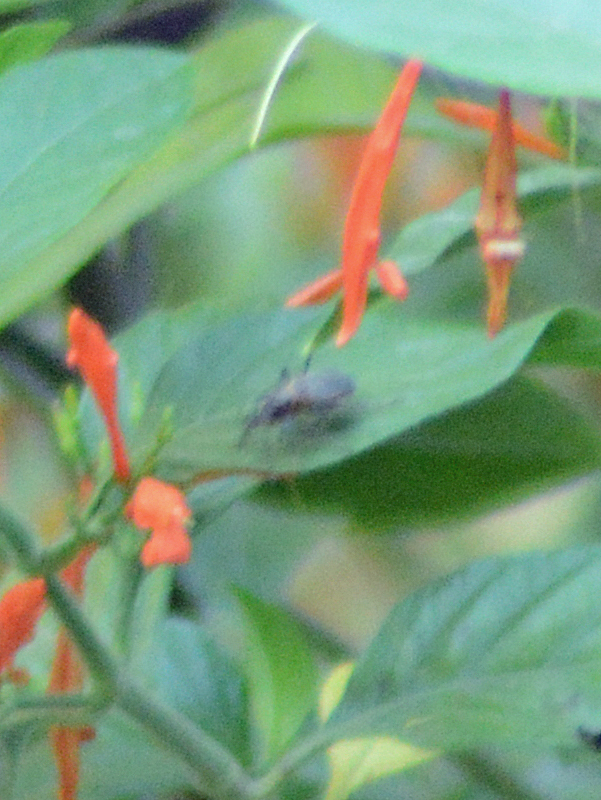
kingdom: Plantae
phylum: Tracheophyta
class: Magnoliopsida
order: Lamiales
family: Acanthaceae
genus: Justicia
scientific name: Justicia spicigera
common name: Mohintli
